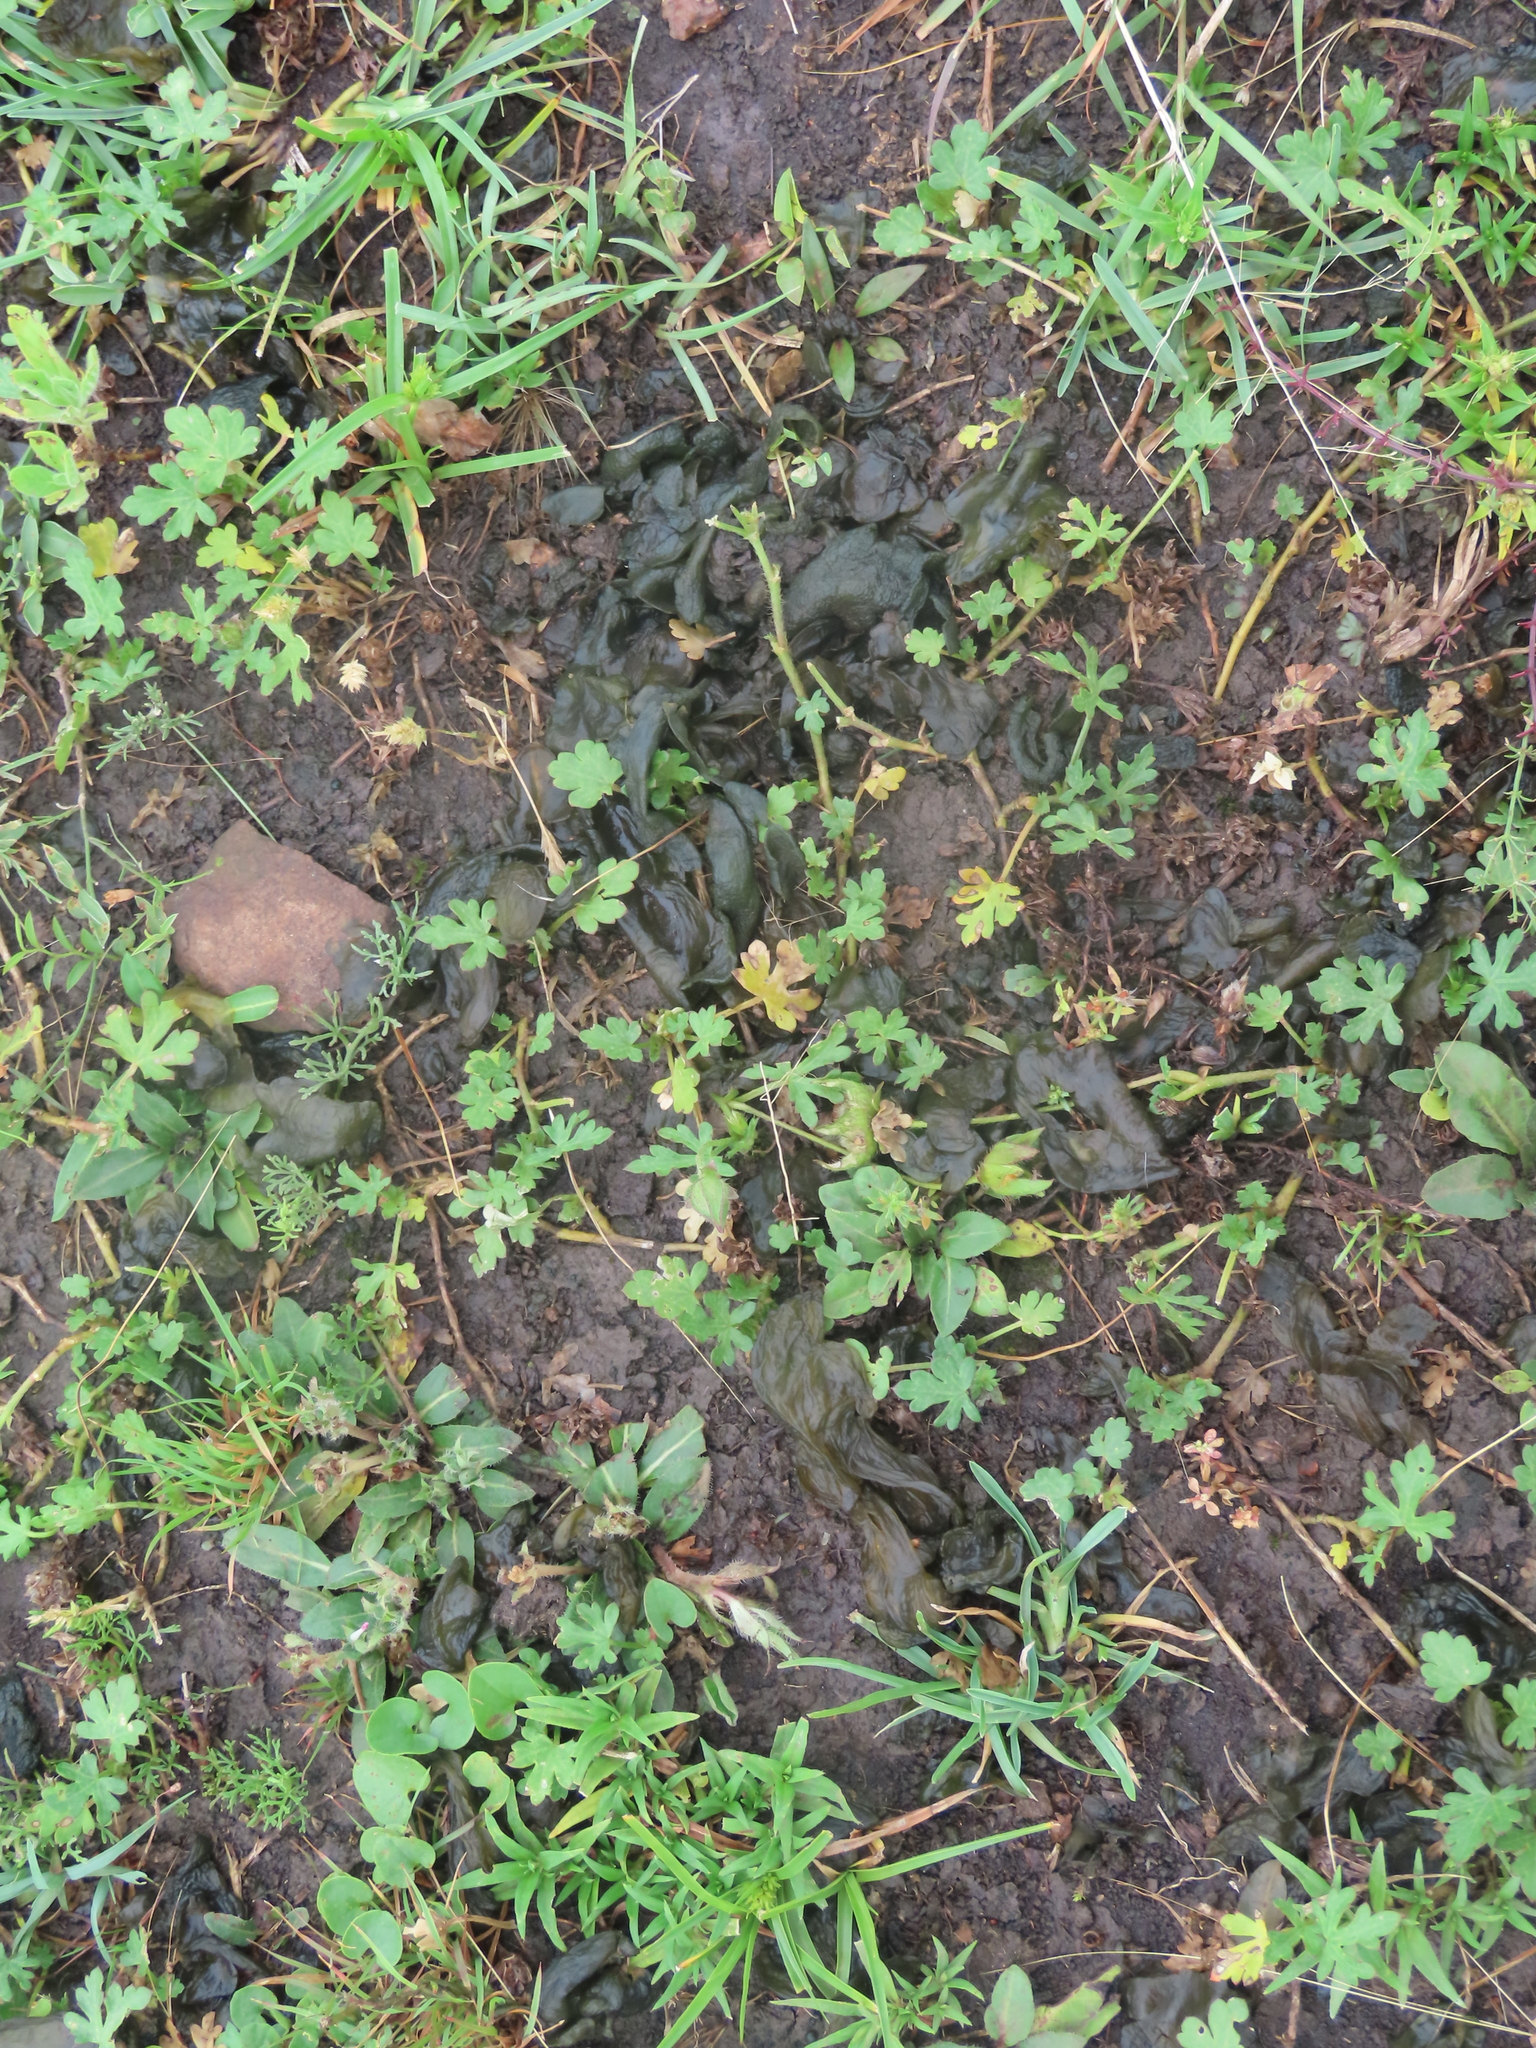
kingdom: Bacteria
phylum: Cyanobacteria
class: Cyanobacteriia
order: Cyanobacteriales
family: Nostocaceae
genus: Nostoc
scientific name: Nostoc commune
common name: Star jelly
